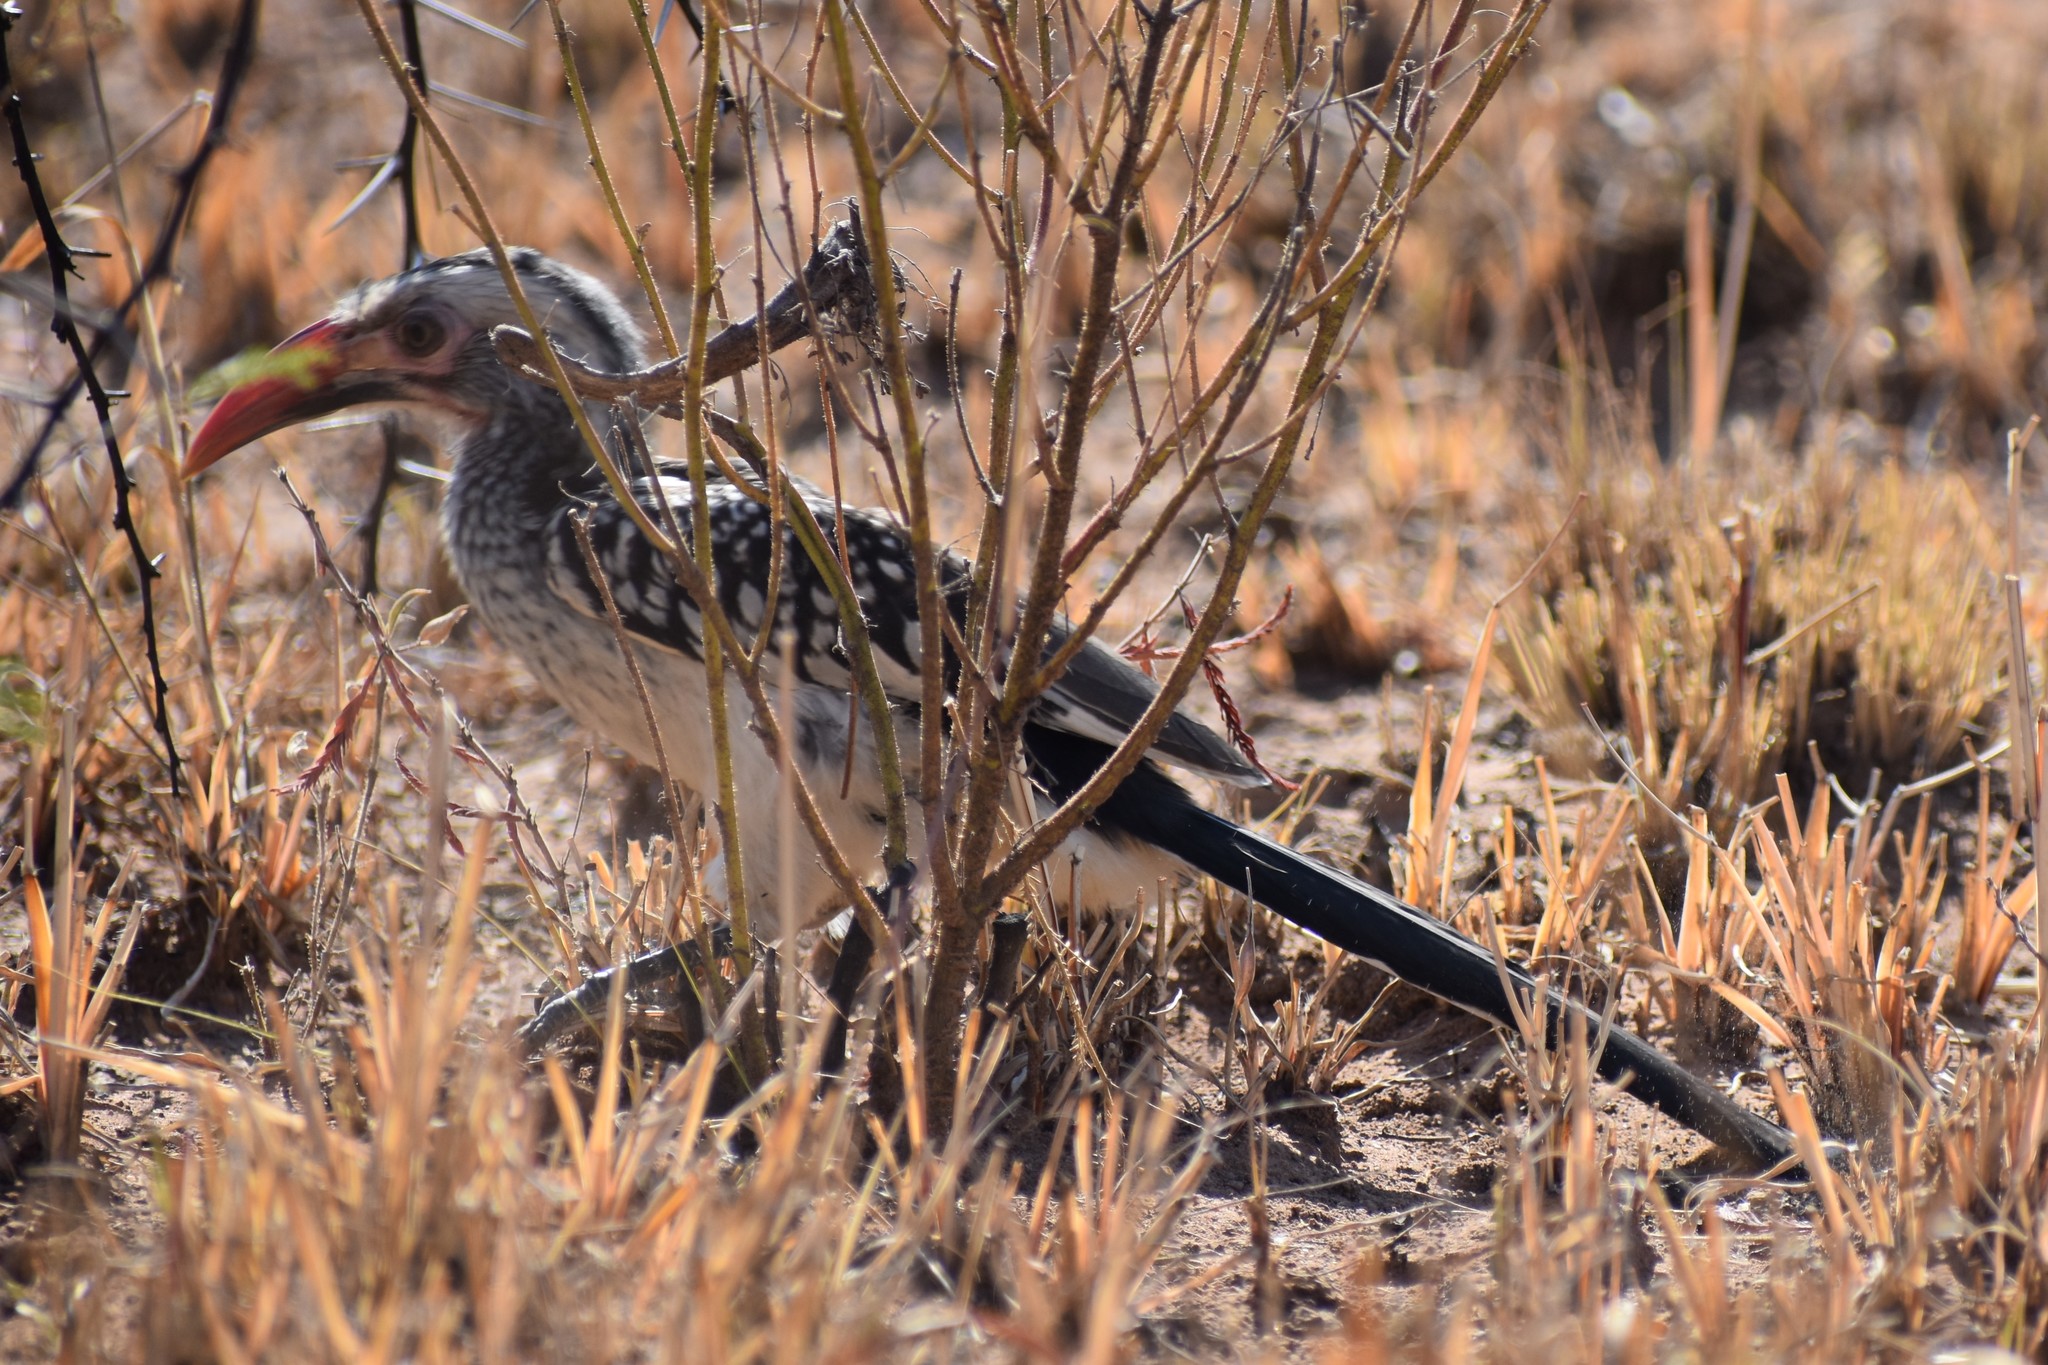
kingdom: Animalia
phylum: Chordata
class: Aves
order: Bucerotiformes
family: Bucerotidae
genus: Tockus
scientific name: Tockus rufirostris
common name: Southern red-billed hornbill
